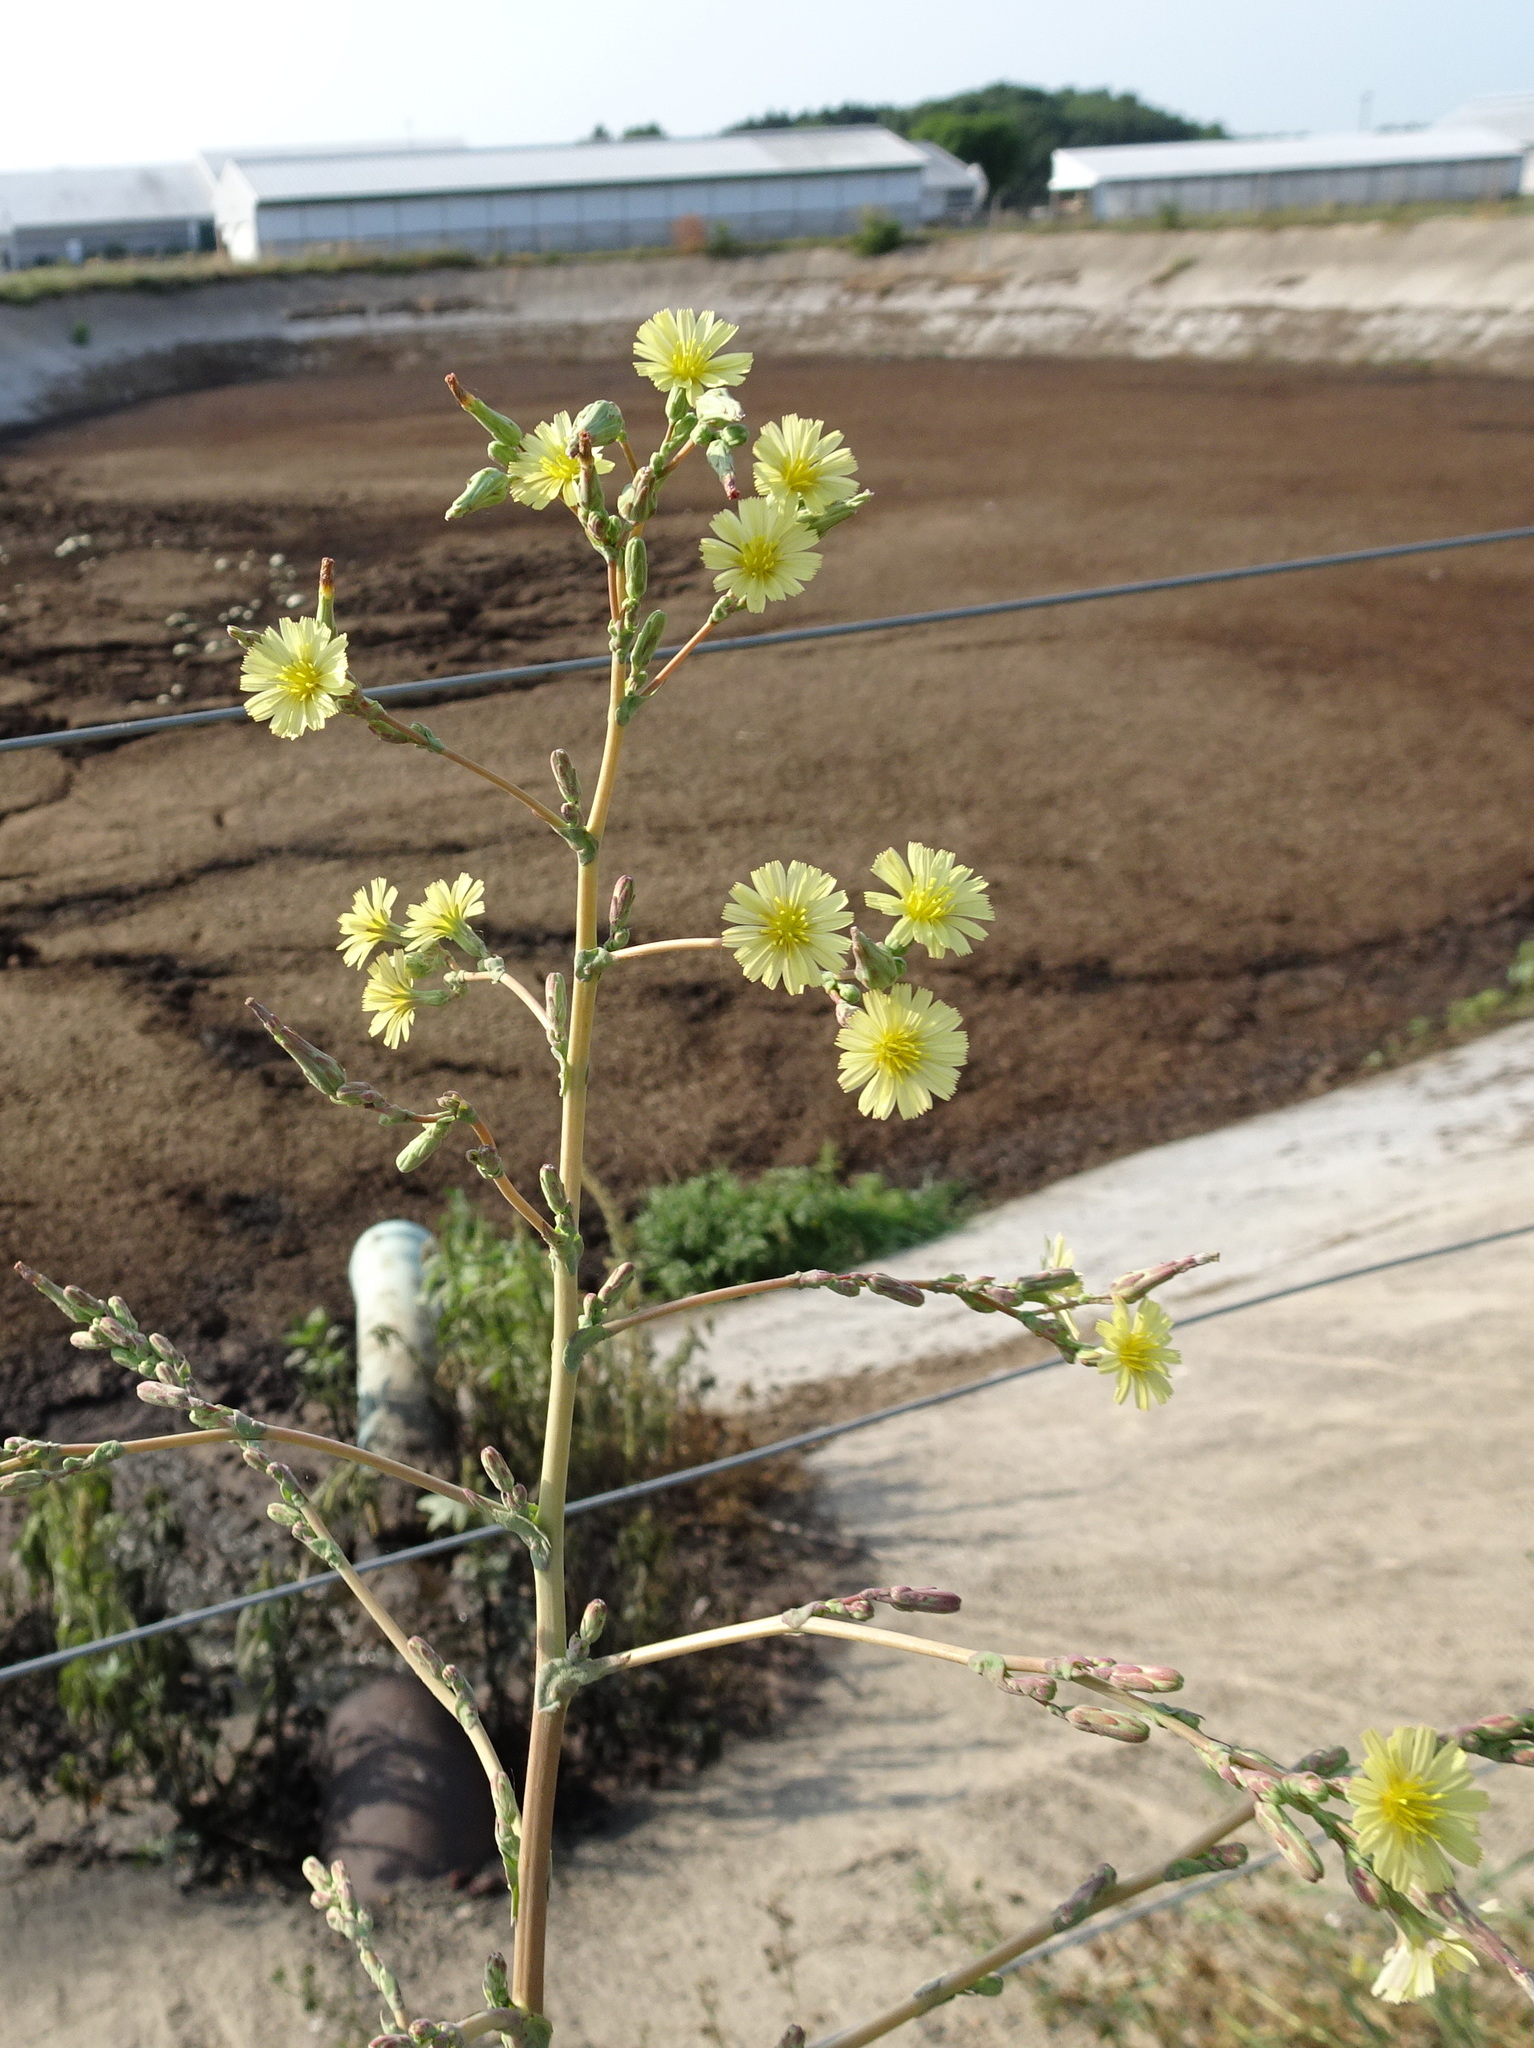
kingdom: Plantae
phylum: Tracheophyta
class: Magnoliopsida
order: Asterales
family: Asteraceae
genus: Lactuca
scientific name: Lactuca serriola
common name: Prickly lettuce
